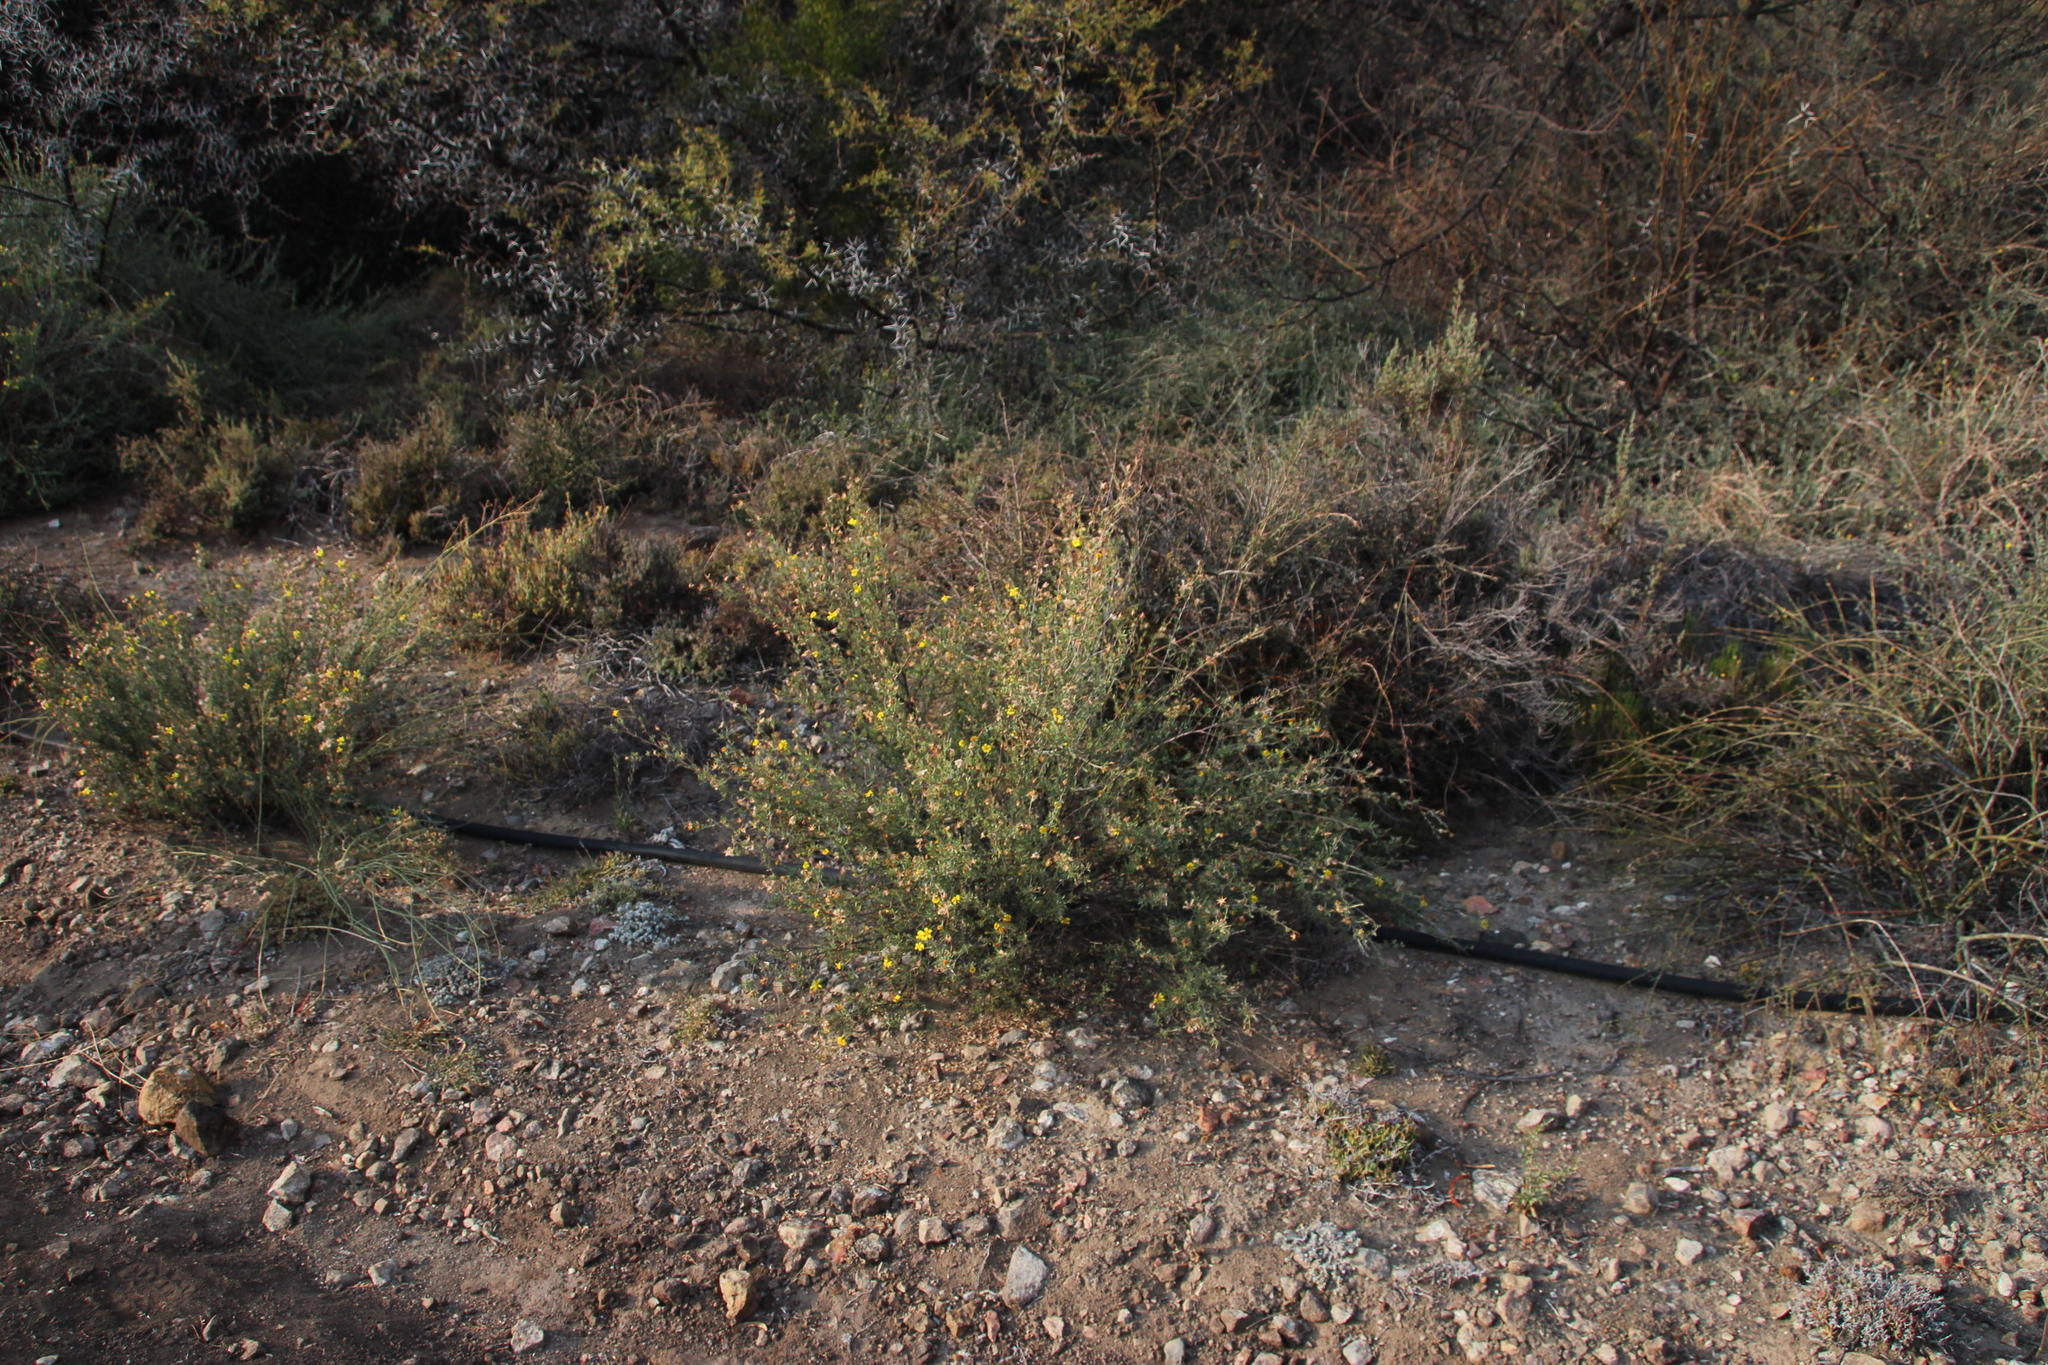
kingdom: Plantae
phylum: Tracheophyta
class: Magnoliopsida
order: Asterales
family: Asteraceae
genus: Othonna
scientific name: Othonna ramulosa
